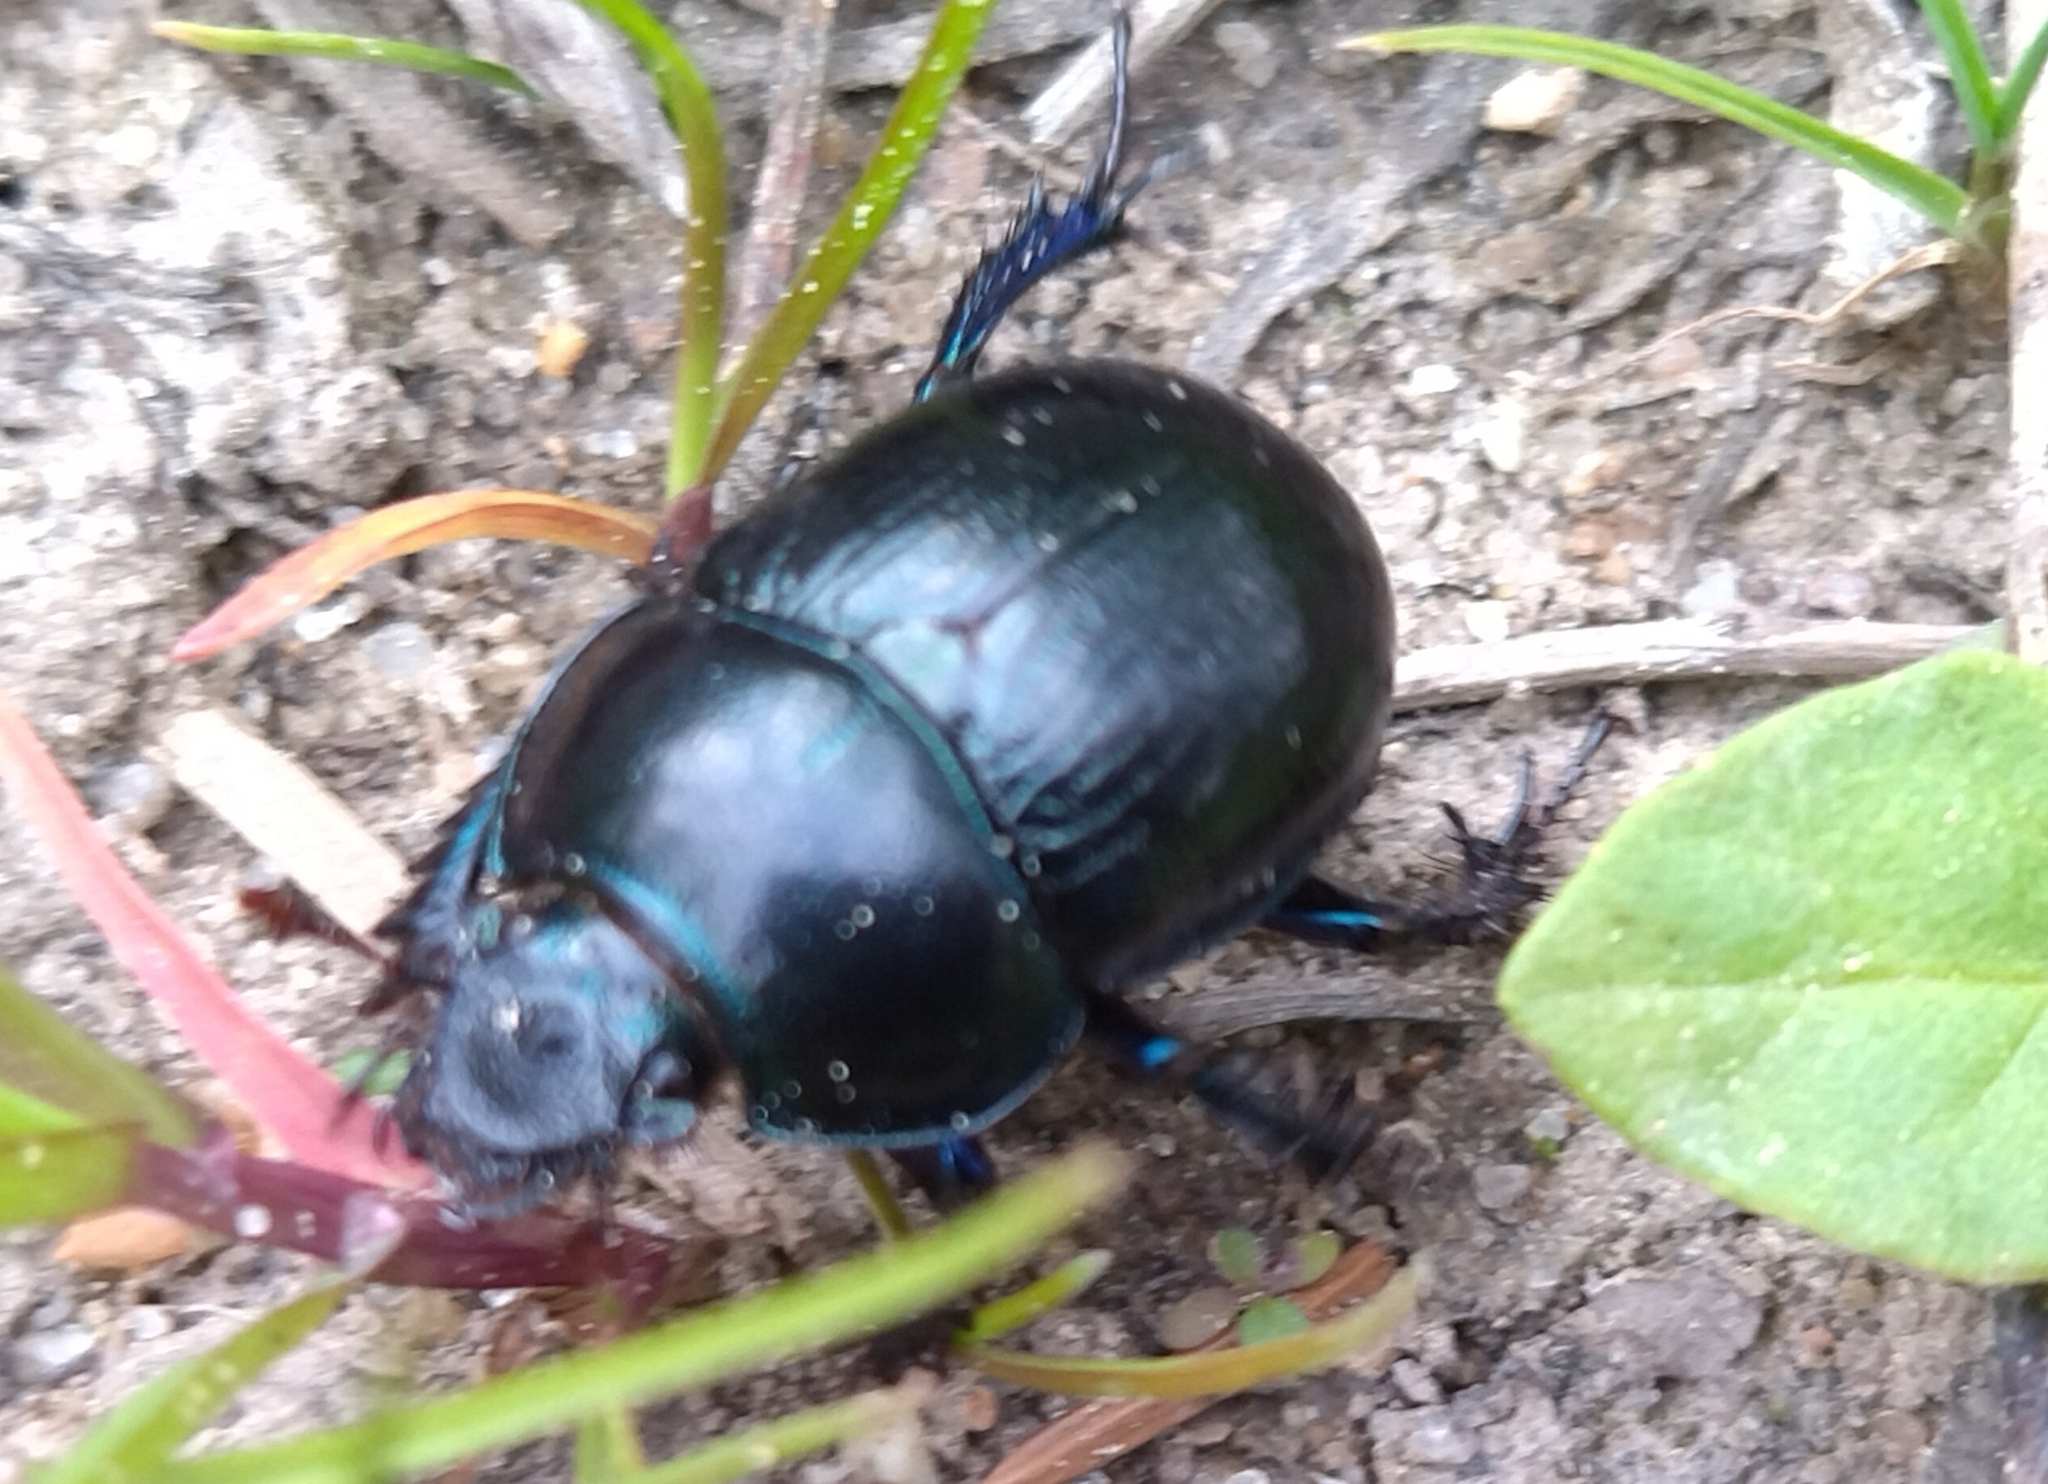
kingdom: Animalia
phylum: Arthropoda
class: Insecta
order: Coleoptera
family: Geotrupidae
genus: Anoplotrupes
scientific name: Anoplotrupes stercorosus
